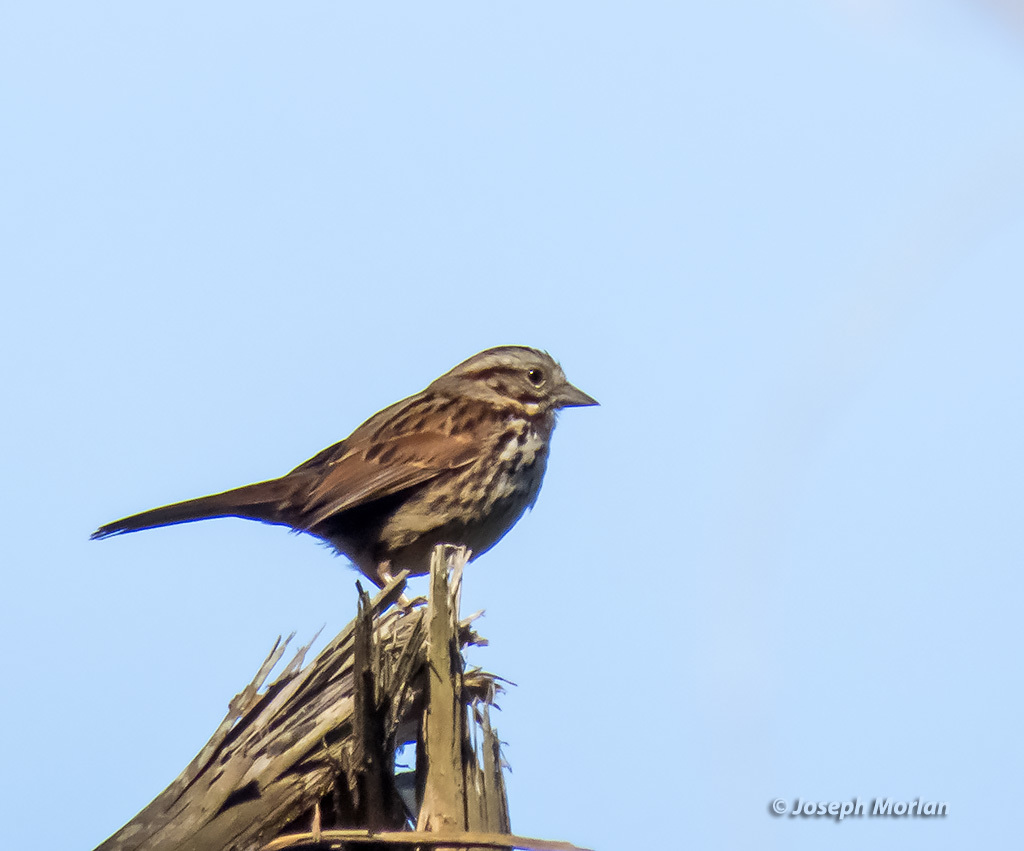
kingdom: Animalia
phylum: Chordata
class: Aves
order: Passeriformes
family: Passerellidae
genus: Melospiza
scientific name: Melospiza melodia
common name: Song sparrow
